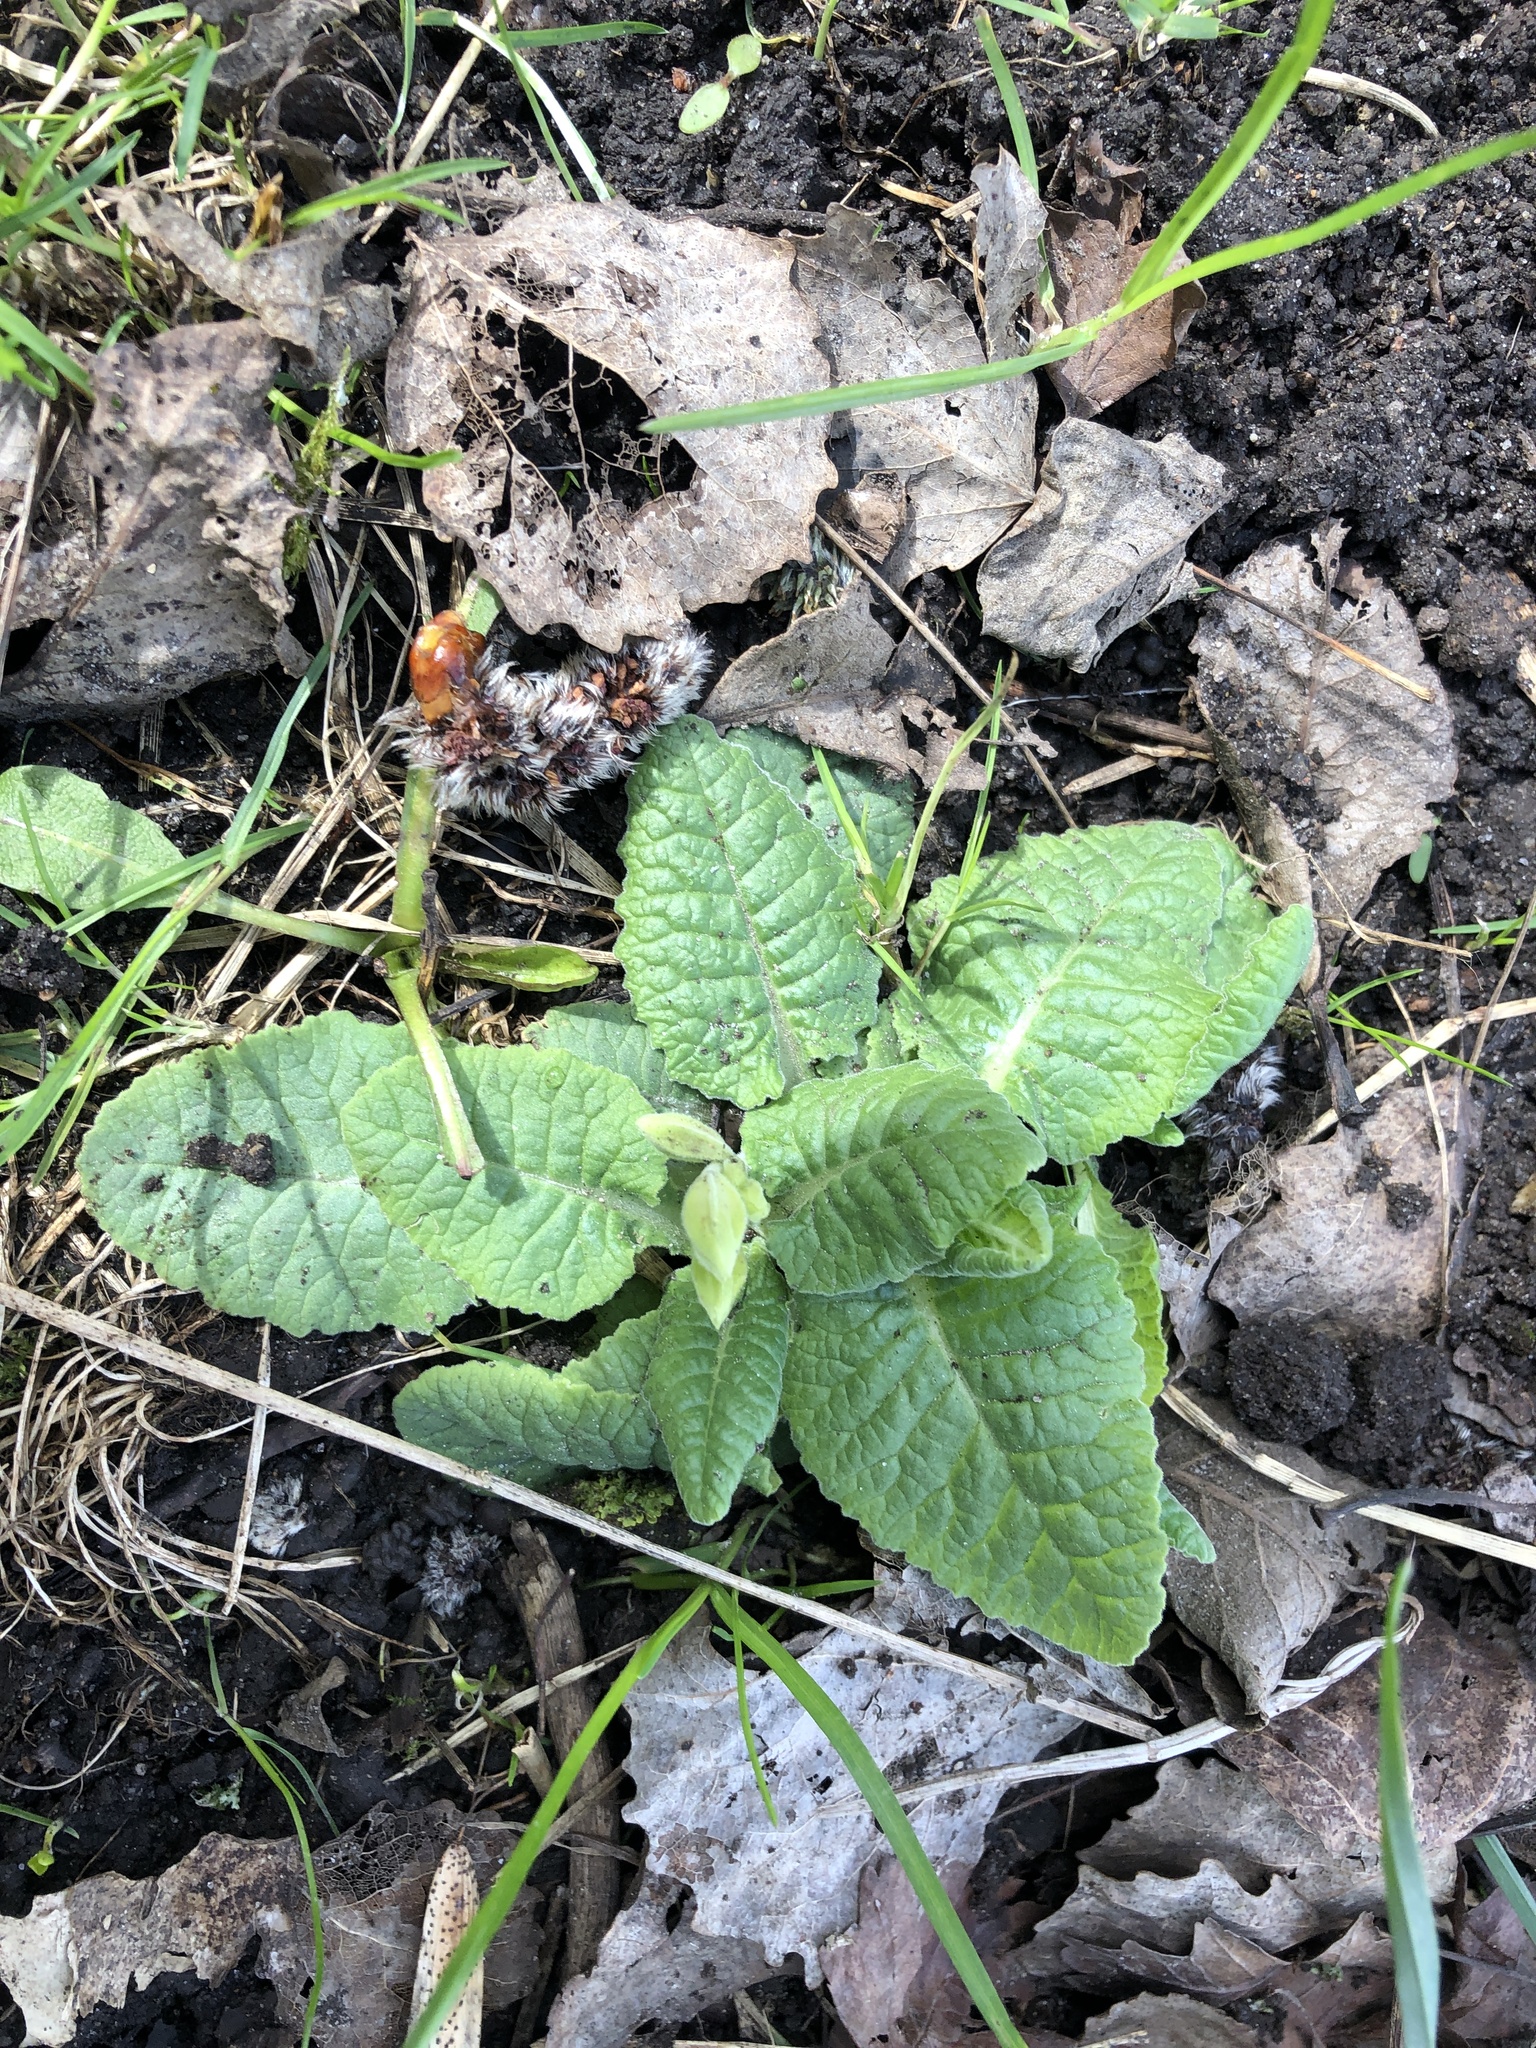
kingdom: Plantae
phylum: Tracheophyta
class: Magnoliopsida
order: Ericales
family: Primulaceae
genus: Primula
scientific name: Primula veris
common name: Cowslip
